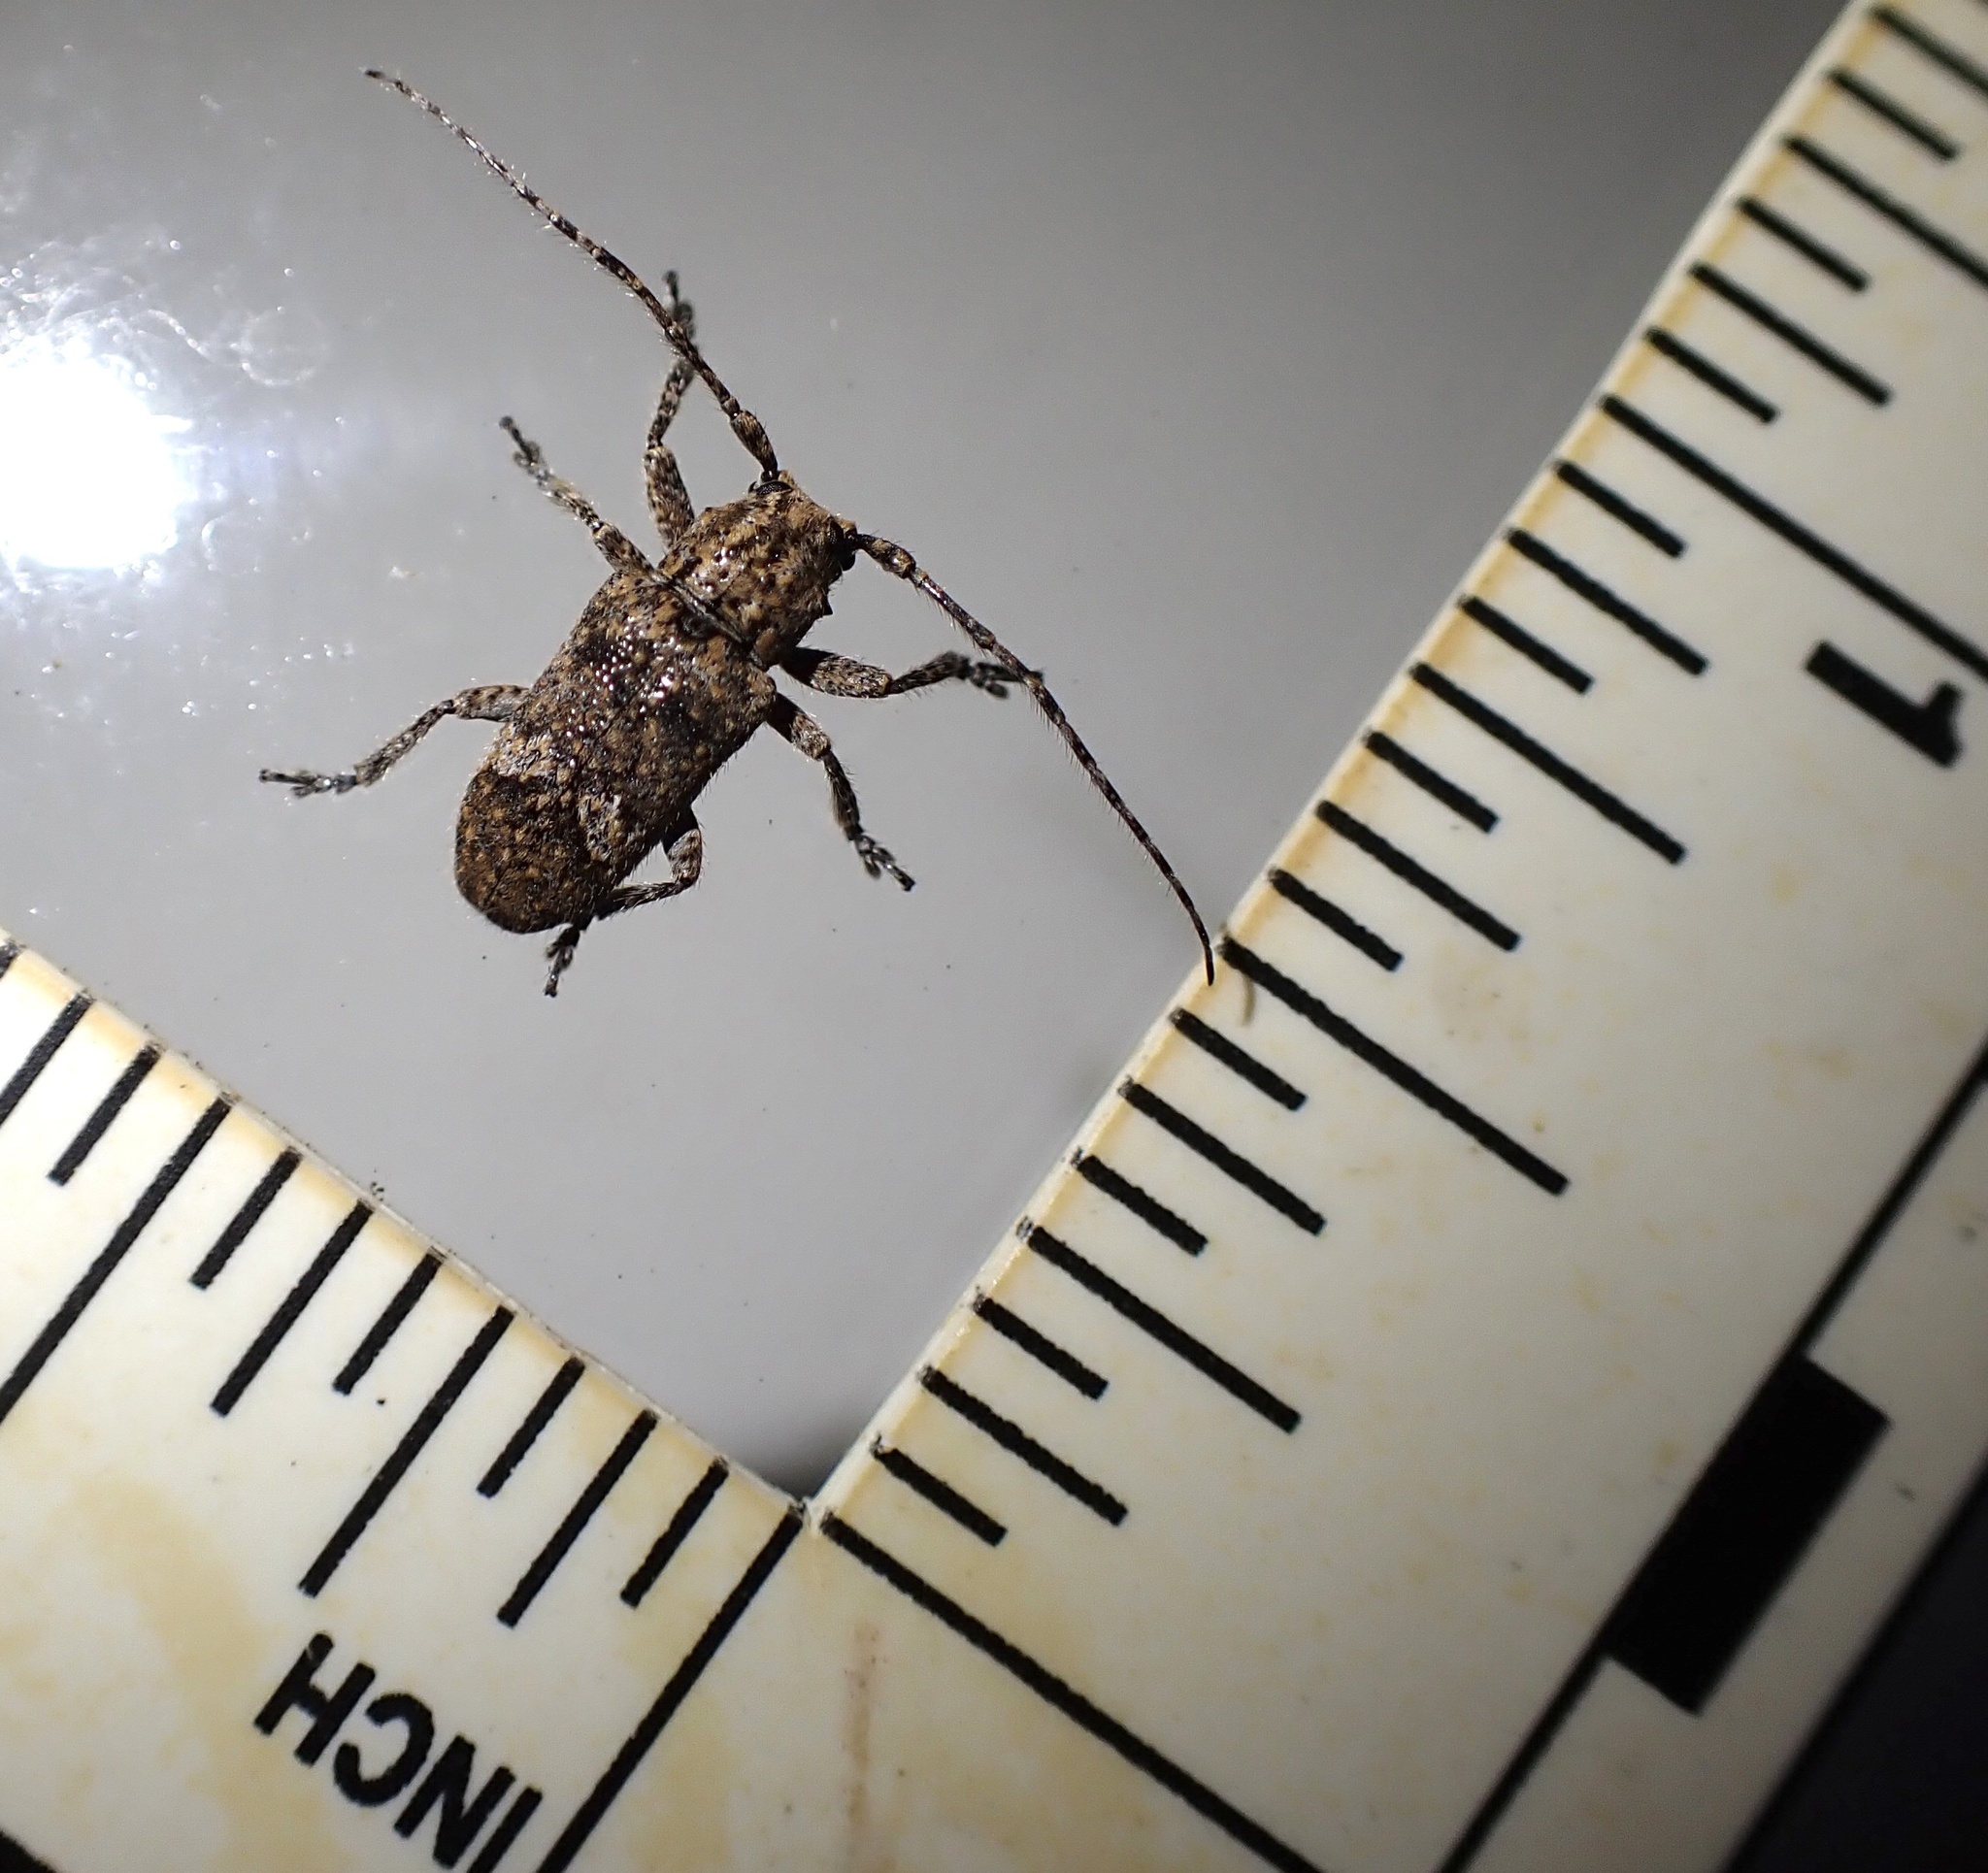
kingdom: Animalia
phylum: Arthropoda
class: Insecta
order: Coleoptera
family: Cerambycidae
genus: Rhytiphora
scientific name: Rhytiphora bankii
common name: Prosoplus long horned beetle
